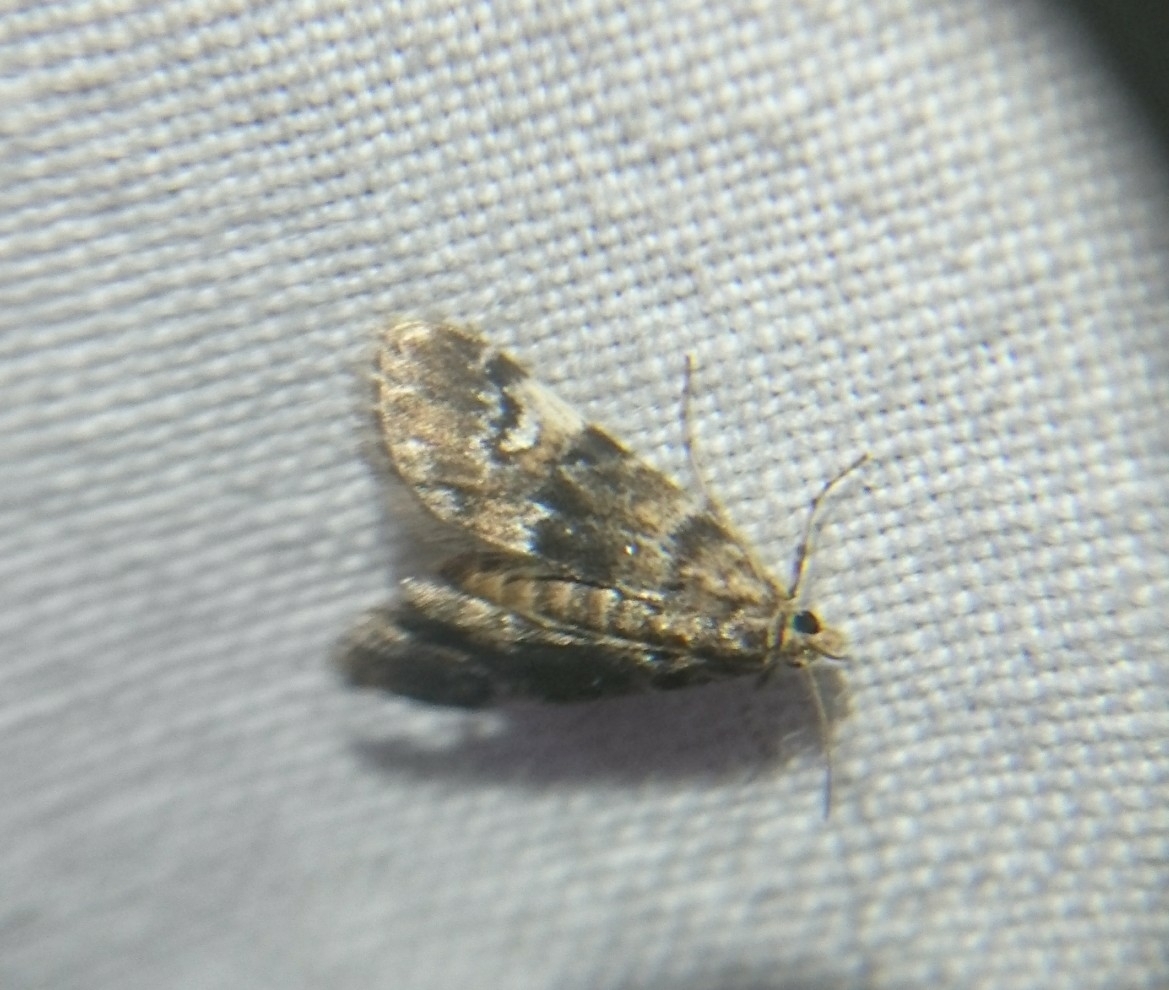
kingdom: Animalia
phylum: Arthropoda
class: Insecta
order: Lepidoptera
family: Crambidae
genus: Elophila
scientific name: Elophila obliteralis
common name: Waterlily leafcutter moth
